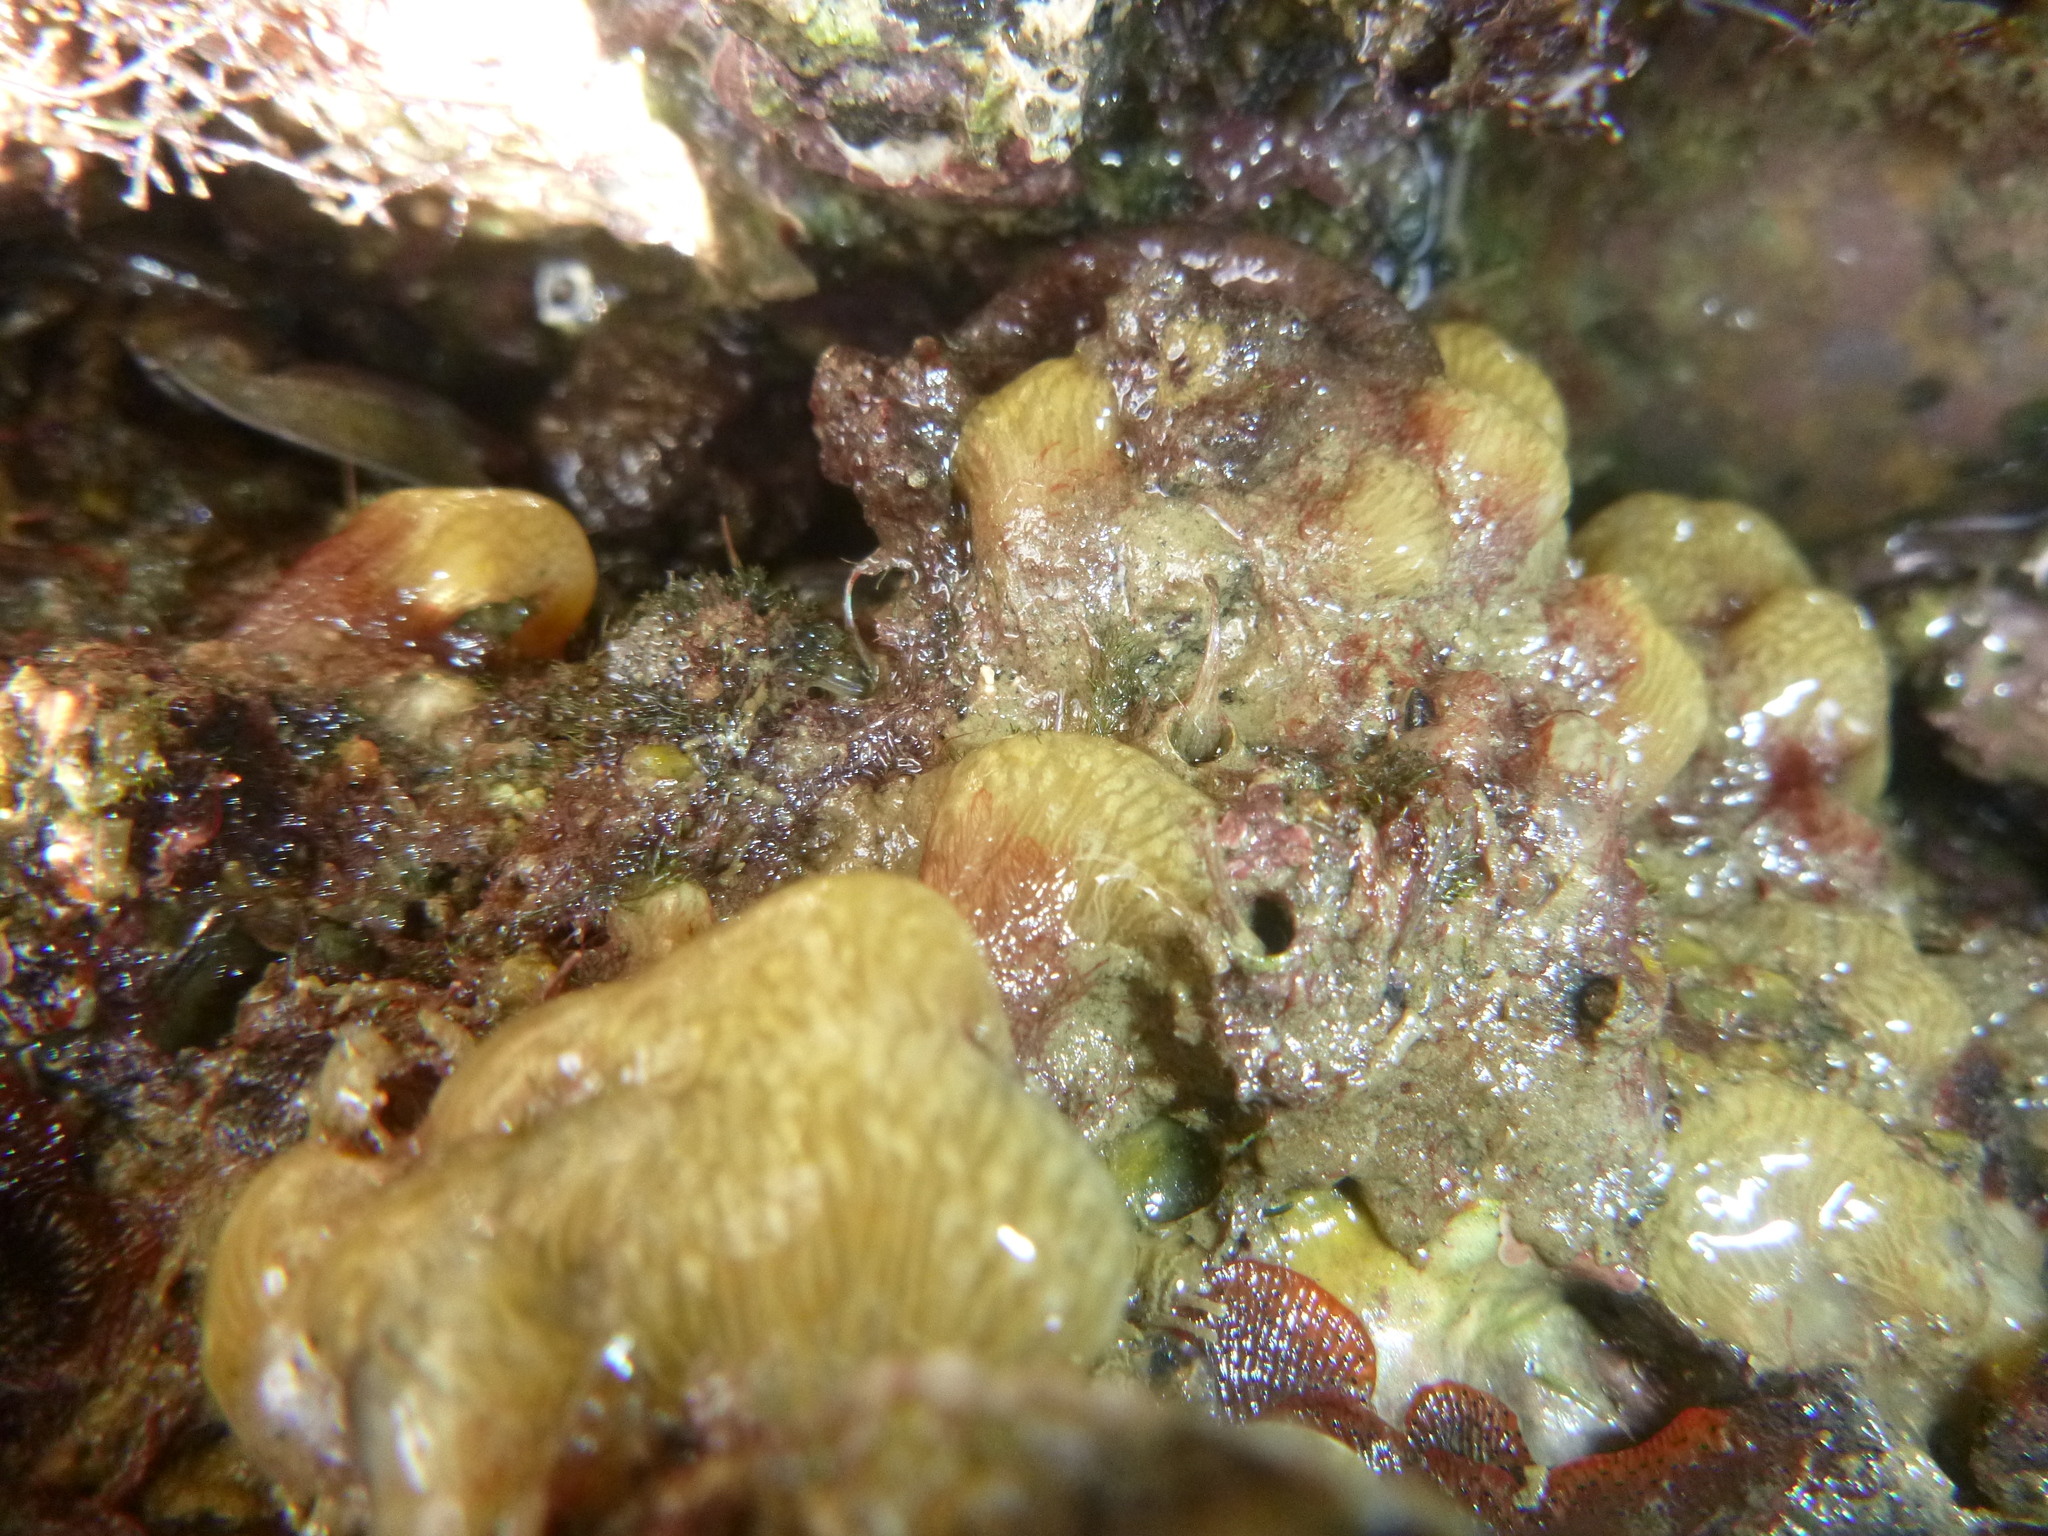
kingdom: Animalia
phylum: Chordata
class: Ascidiacea
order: Aplousobranchia
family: Pseudodistomidae
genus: Pseudodistoma
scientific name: Pseudodistoma opacum
